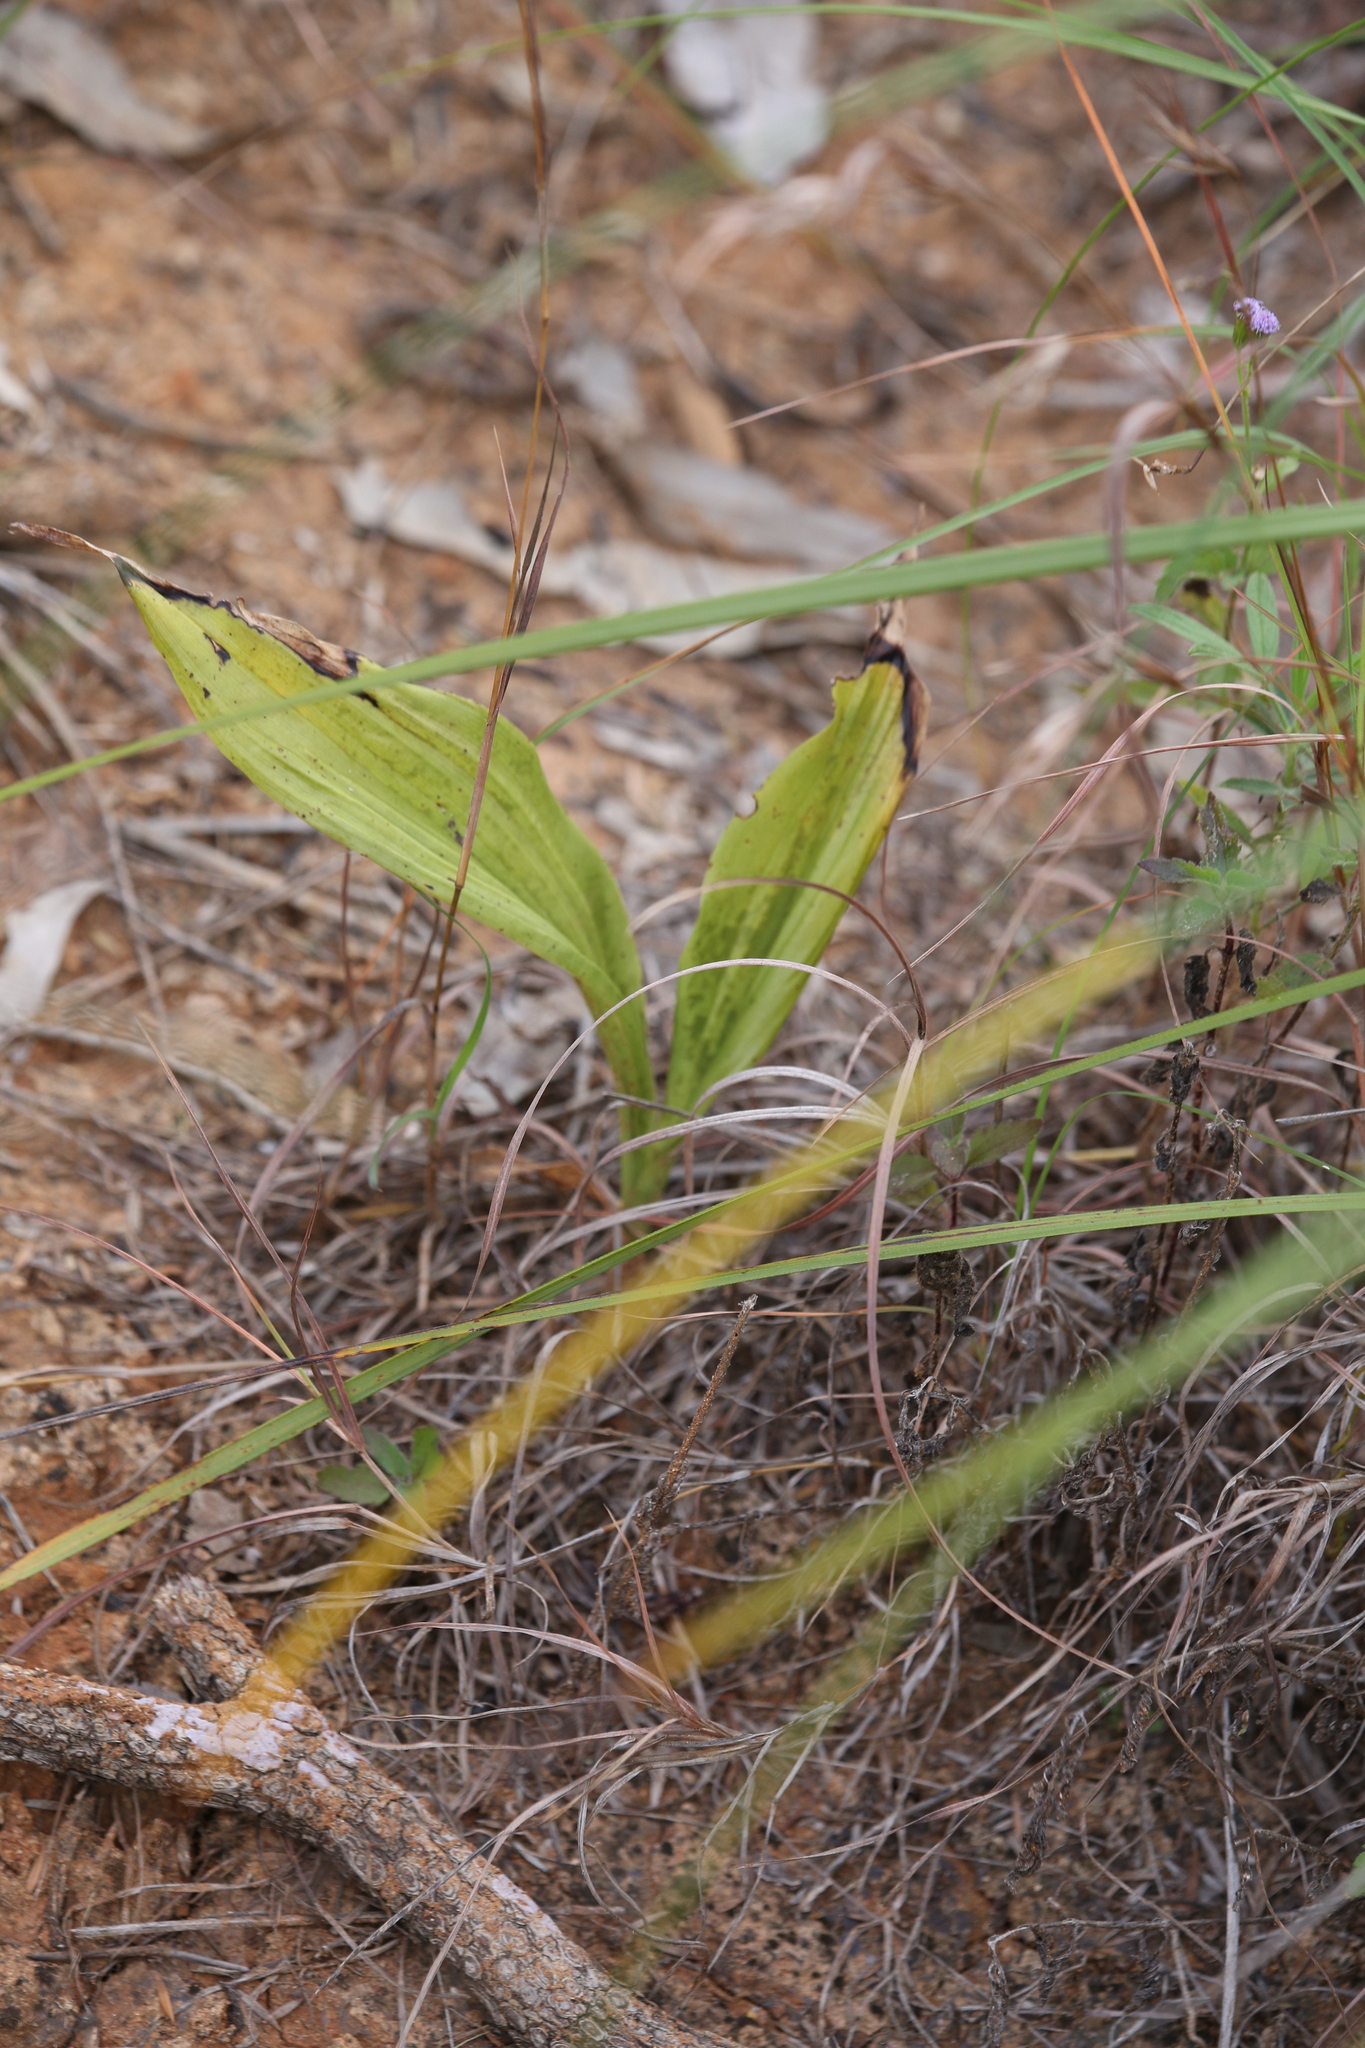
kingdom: Plantae
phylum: Tracheophyta
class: Liliopsida
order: Asparagales
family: Orchidaceae
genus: Eulophia
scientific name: Eulophia cernua
